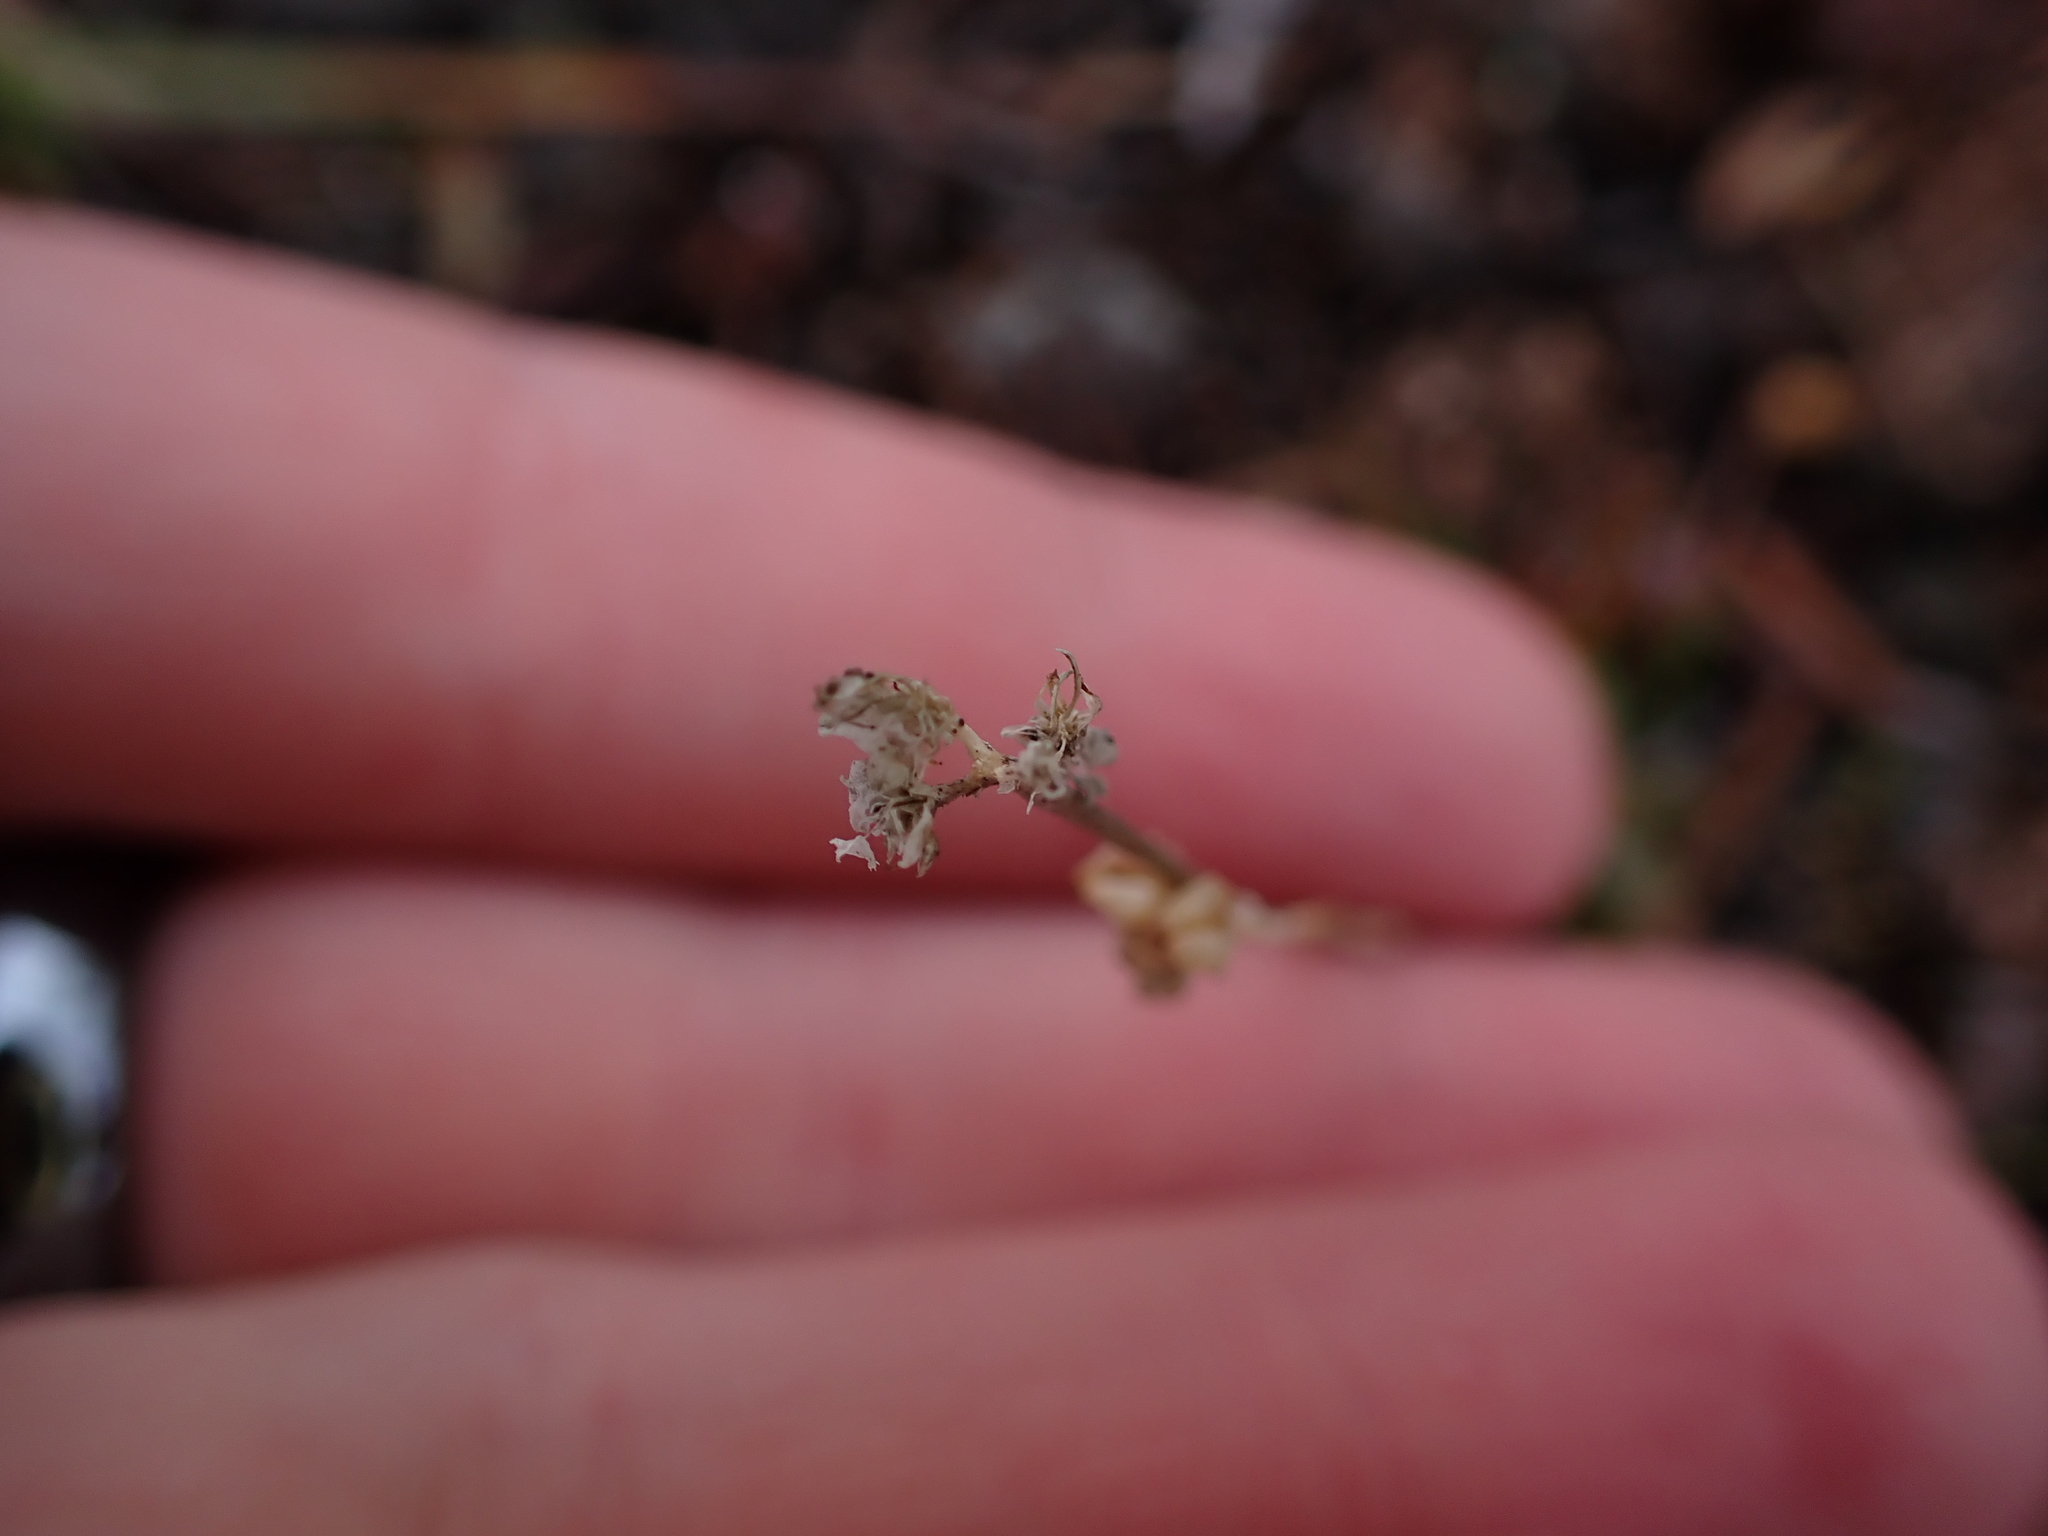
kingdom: Plantae
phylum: Tracheophyta
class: Magnoliopsida
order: Rosales
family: Rosaceae
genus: Dryas
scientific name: Dryas integrifolia
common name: Entire-leaved mountain avens
